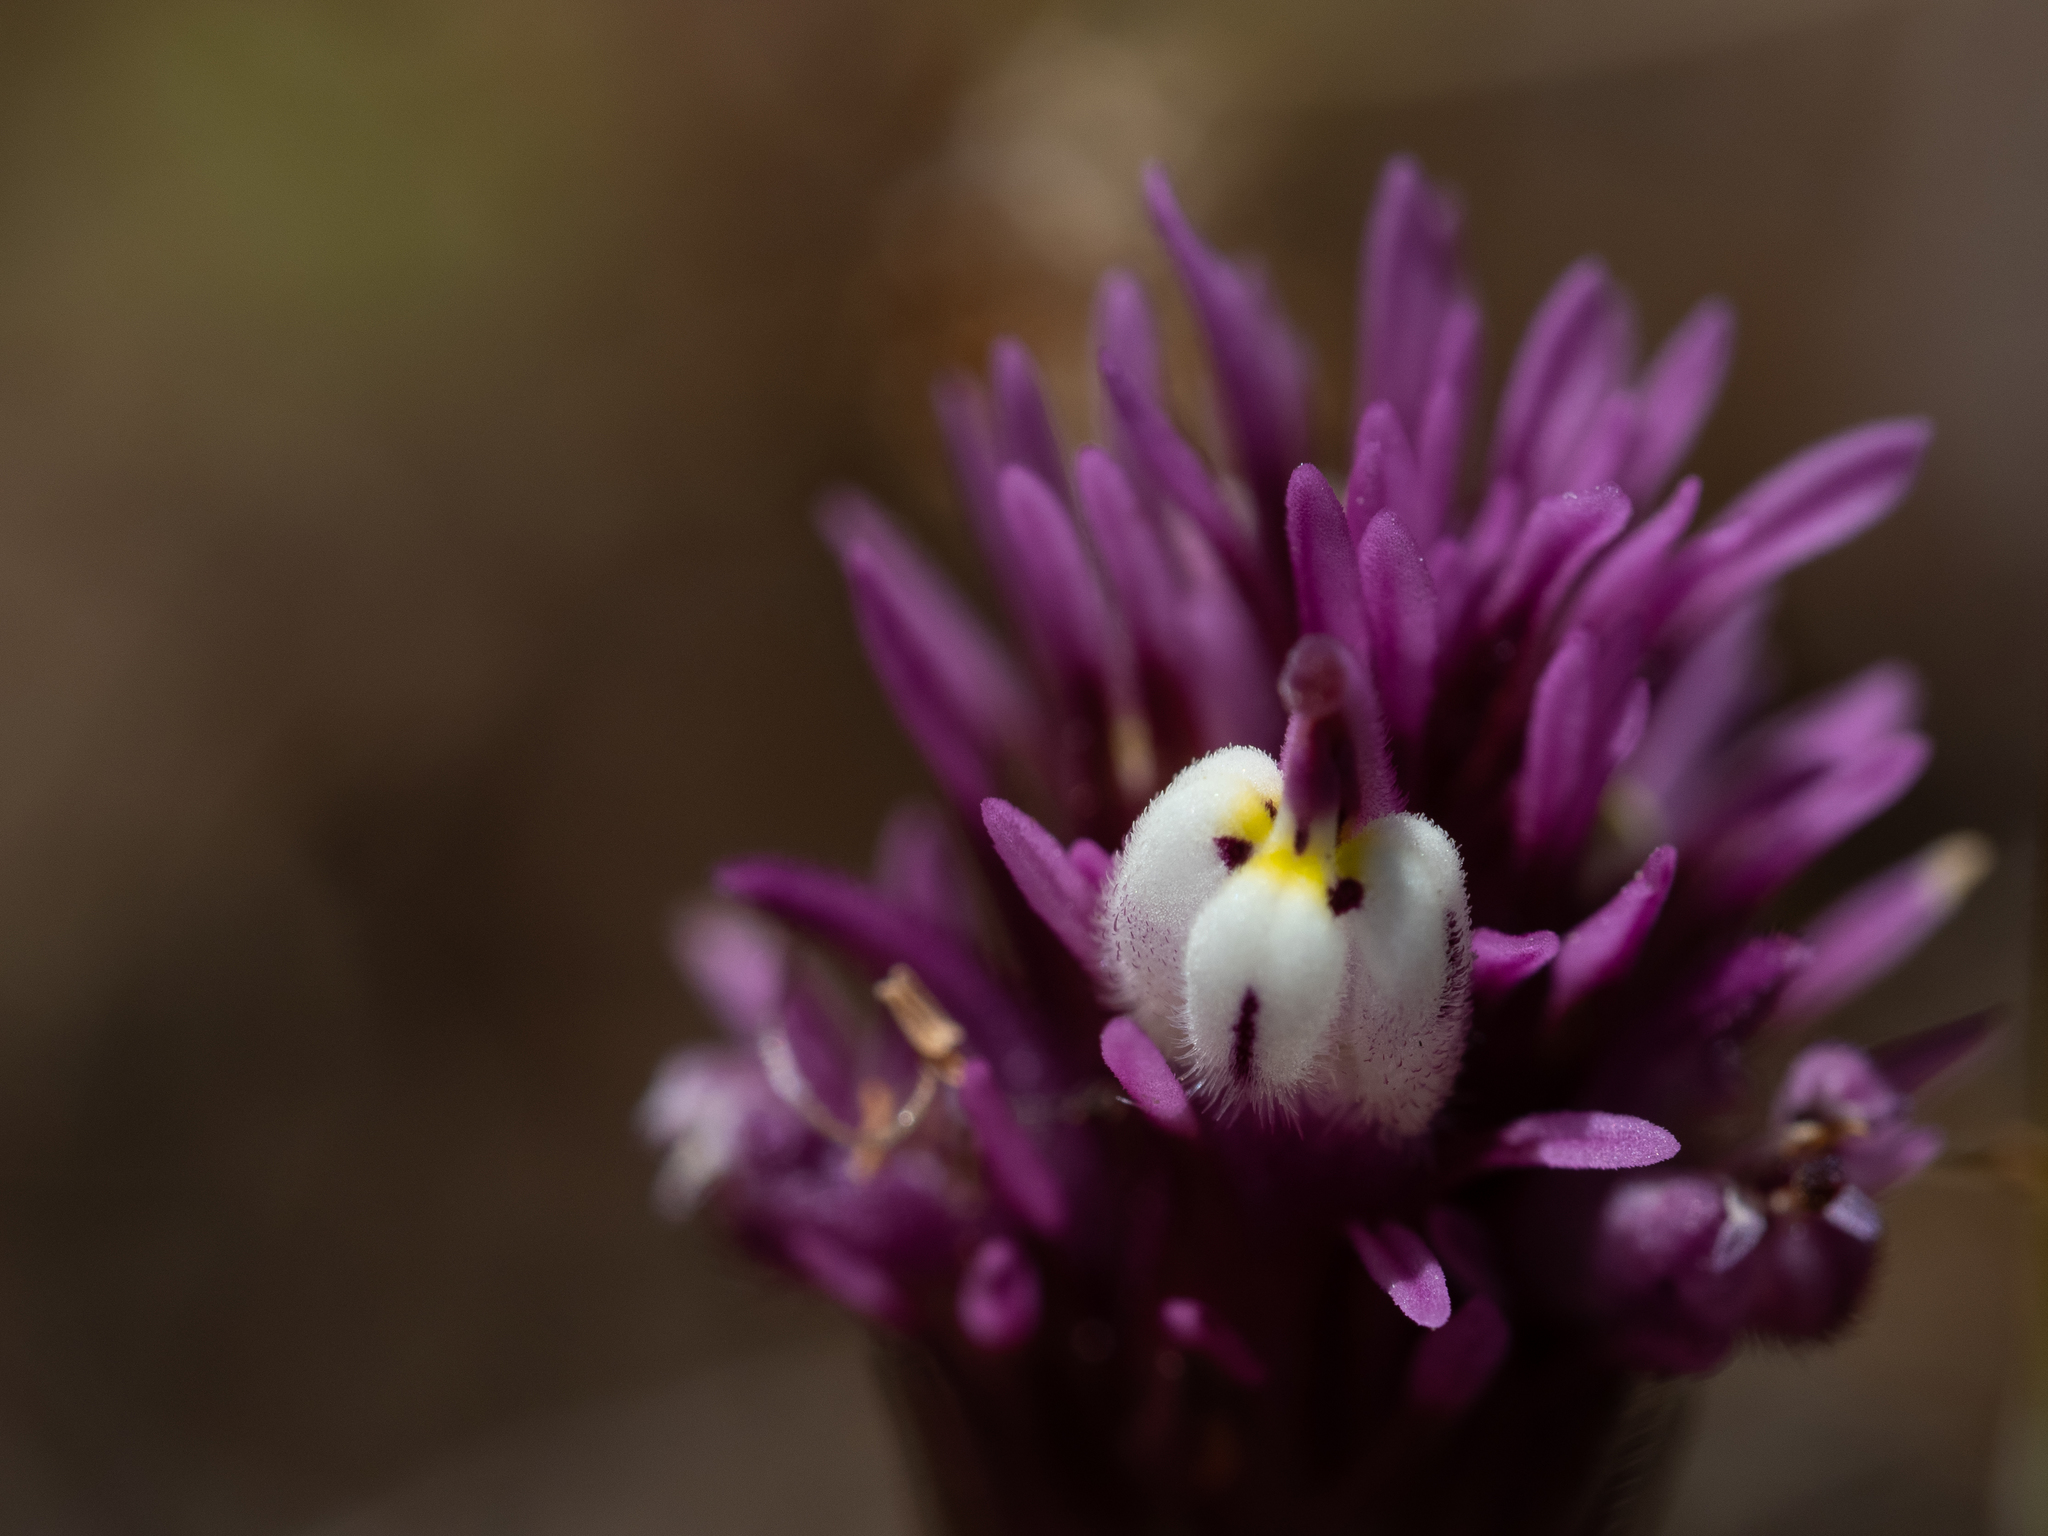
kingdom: Plantae
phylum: Tracheophyta
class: Magnoliopsida
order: Lamiales
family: Orobanchaceae
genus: Castilleja
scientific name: Castilleja densiflora
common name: Dense-flower indian paintbrush
